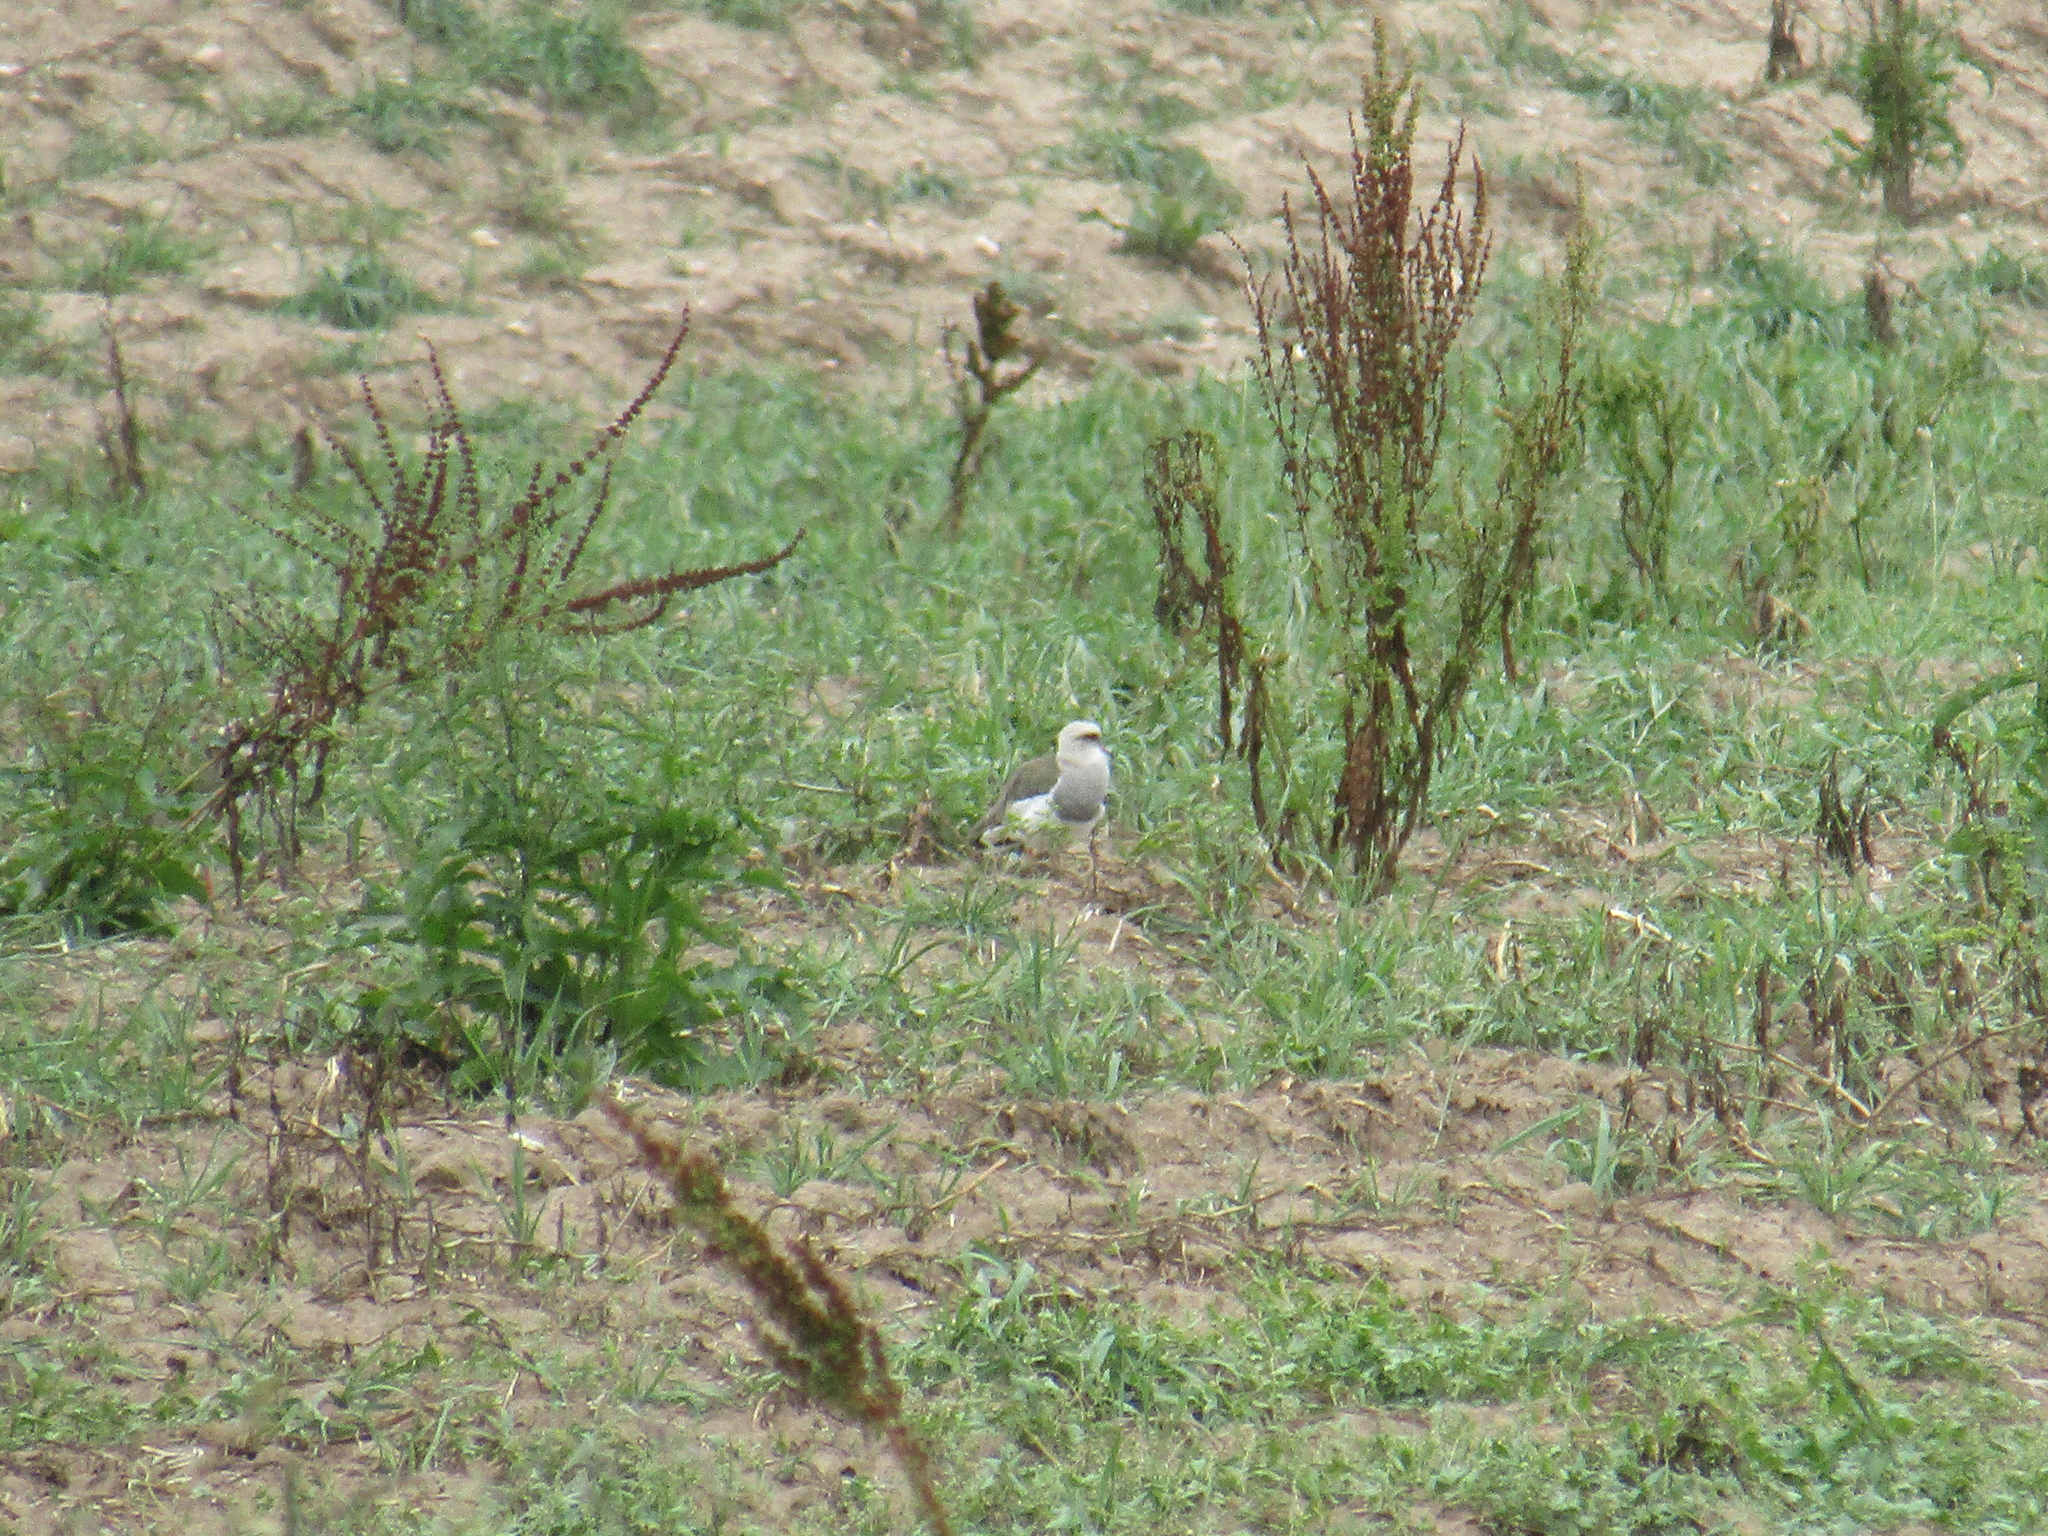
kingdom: Animalia
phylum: Chordata
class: Aves
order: Charadriiformes
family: Charadriidae
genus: Vanellus
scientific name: Vanellus resplendens
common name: Andean lapwing
